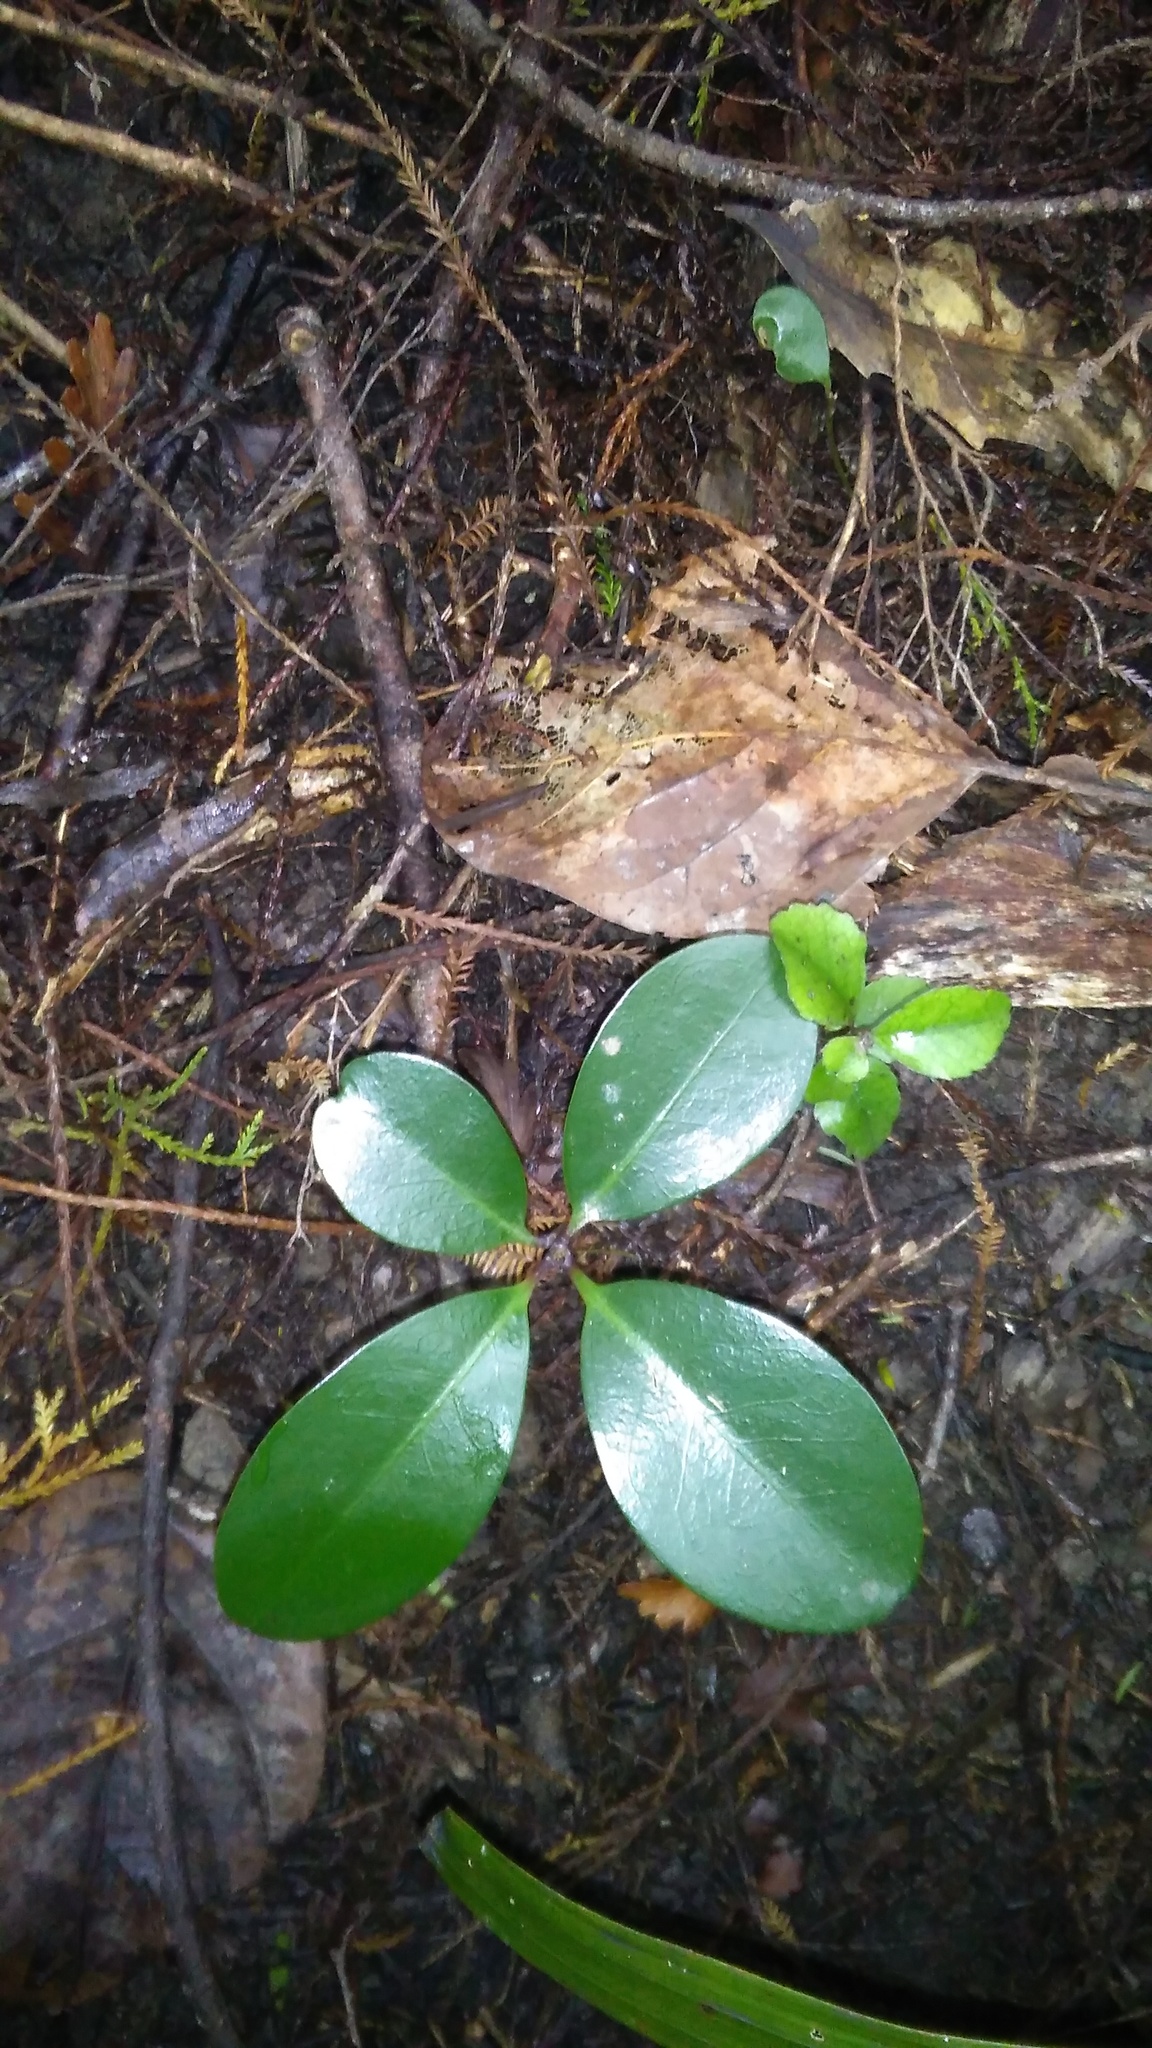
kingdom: Plantae
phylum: Tracheophyta
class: Magnoliopsida
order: Cucurbitales
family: Corynocarpaceae
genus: Corynocarpus
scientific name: Corynocarpus laevigatus
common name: New zealand laurel
